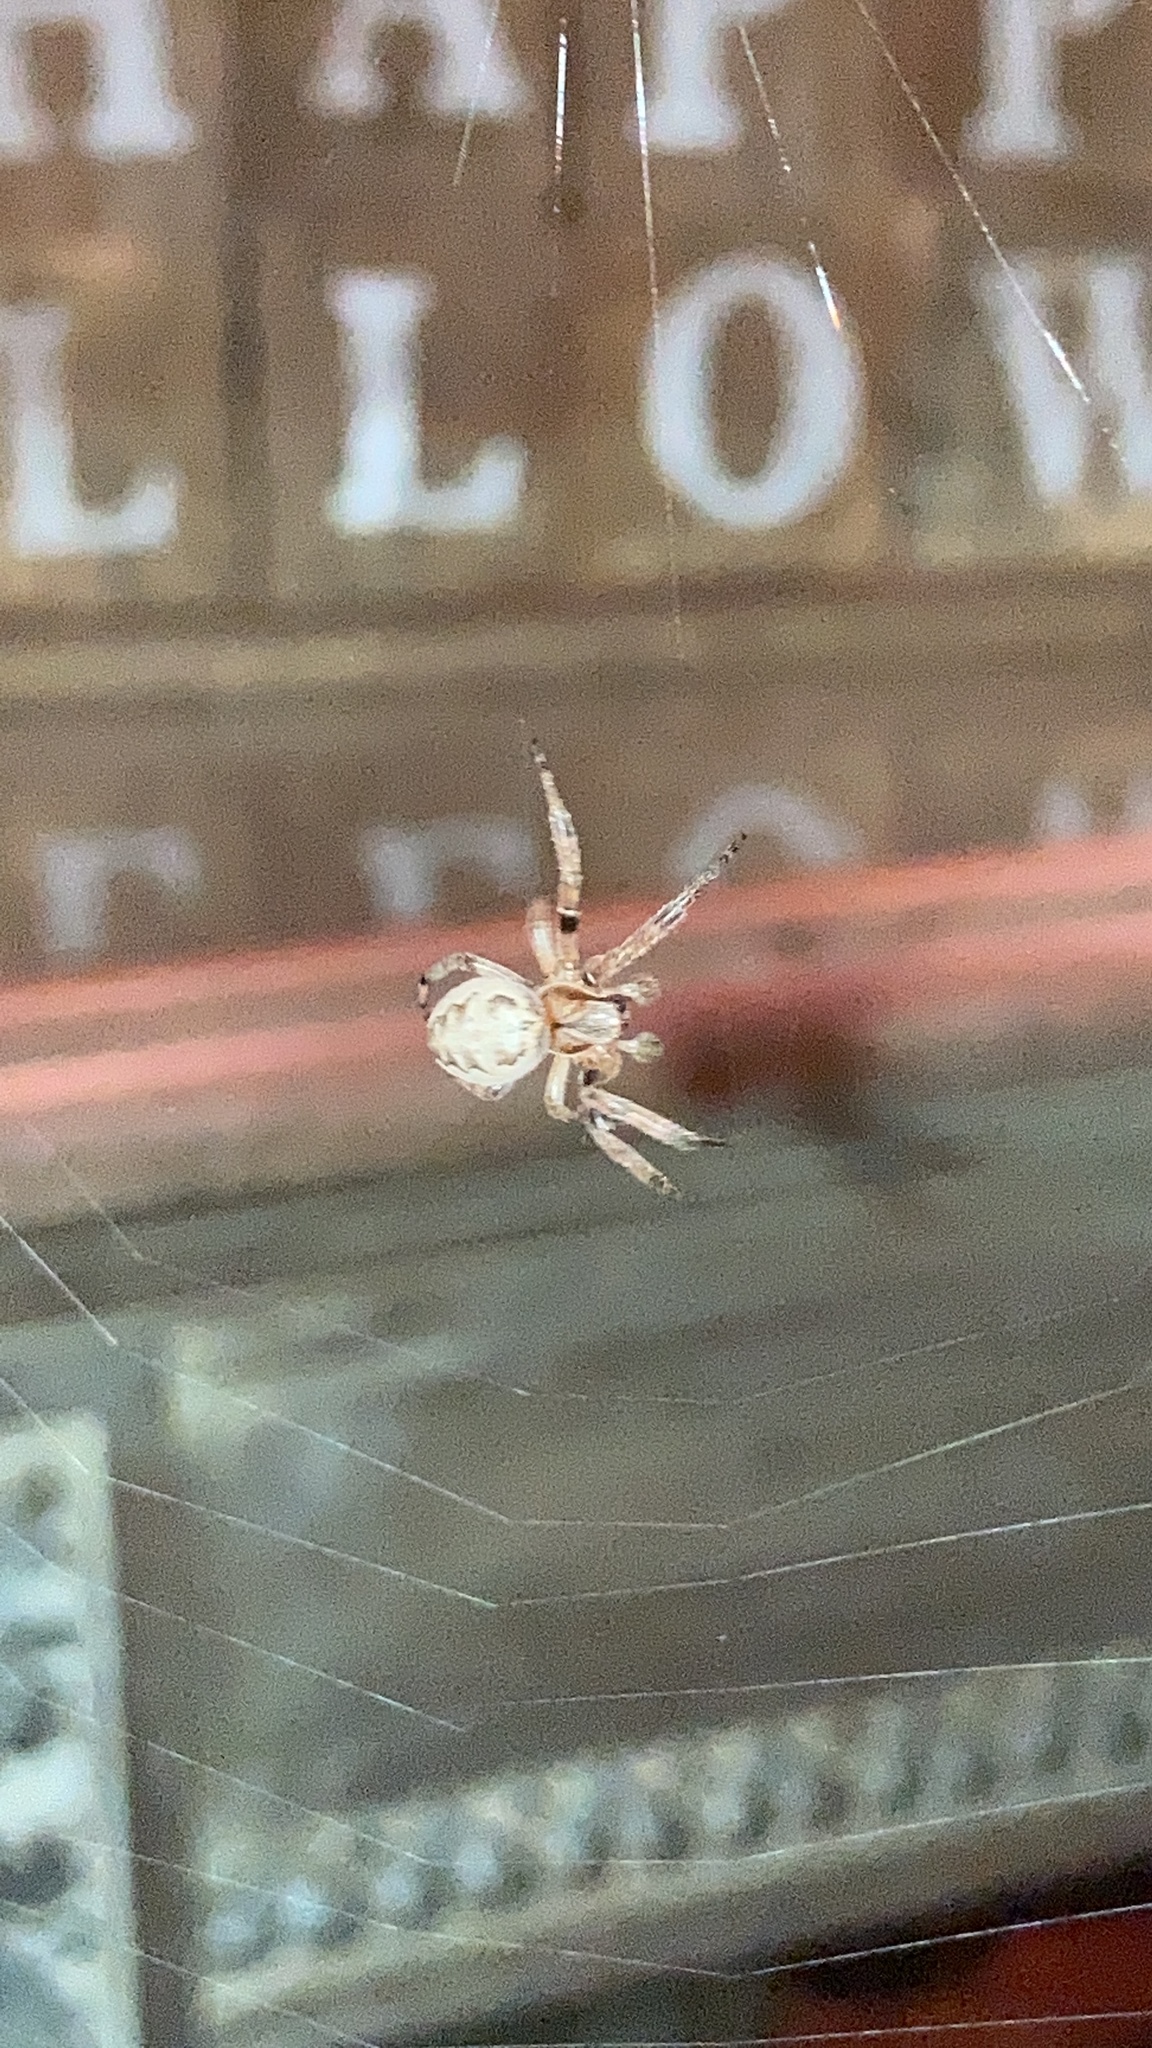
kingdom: Animalia
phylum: Arthropoda
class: Arachnida
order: Araneae
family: Araneidae
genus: Larinioides
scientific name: Larinioides cornutus
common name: Furrow orbweaver
